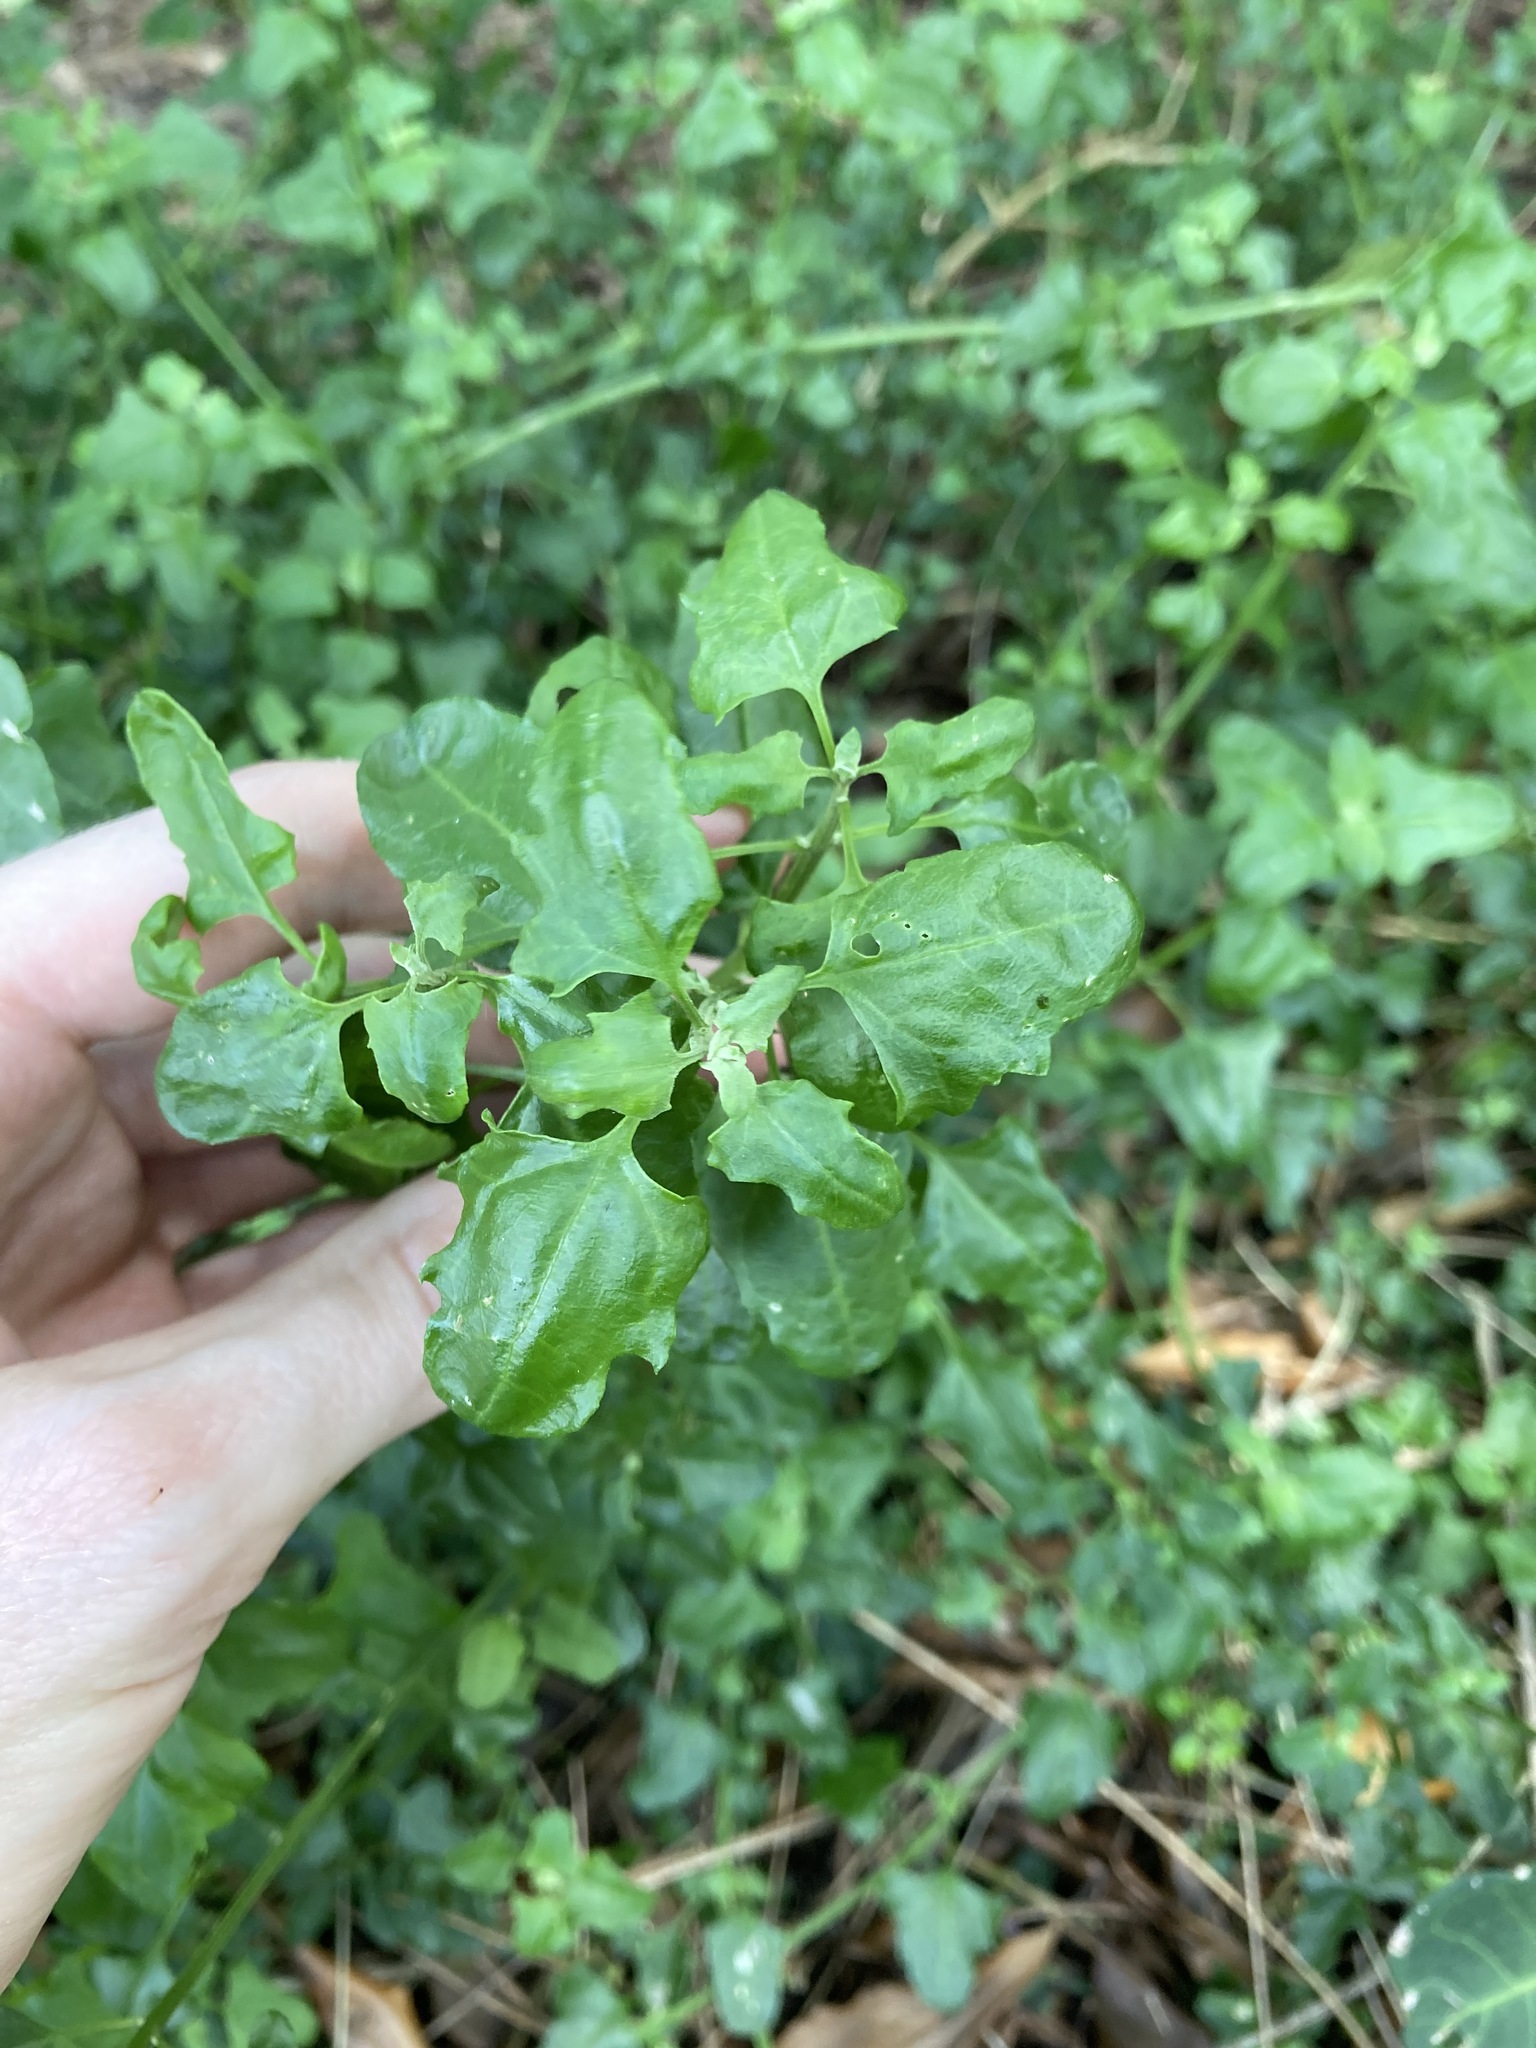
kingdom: Plantae
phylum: Tracheophyta
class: Magnoliopsida
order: Caryophyllales
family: Amaranthaceae
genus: Chenopodium
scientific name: Chenopodium robertianum
